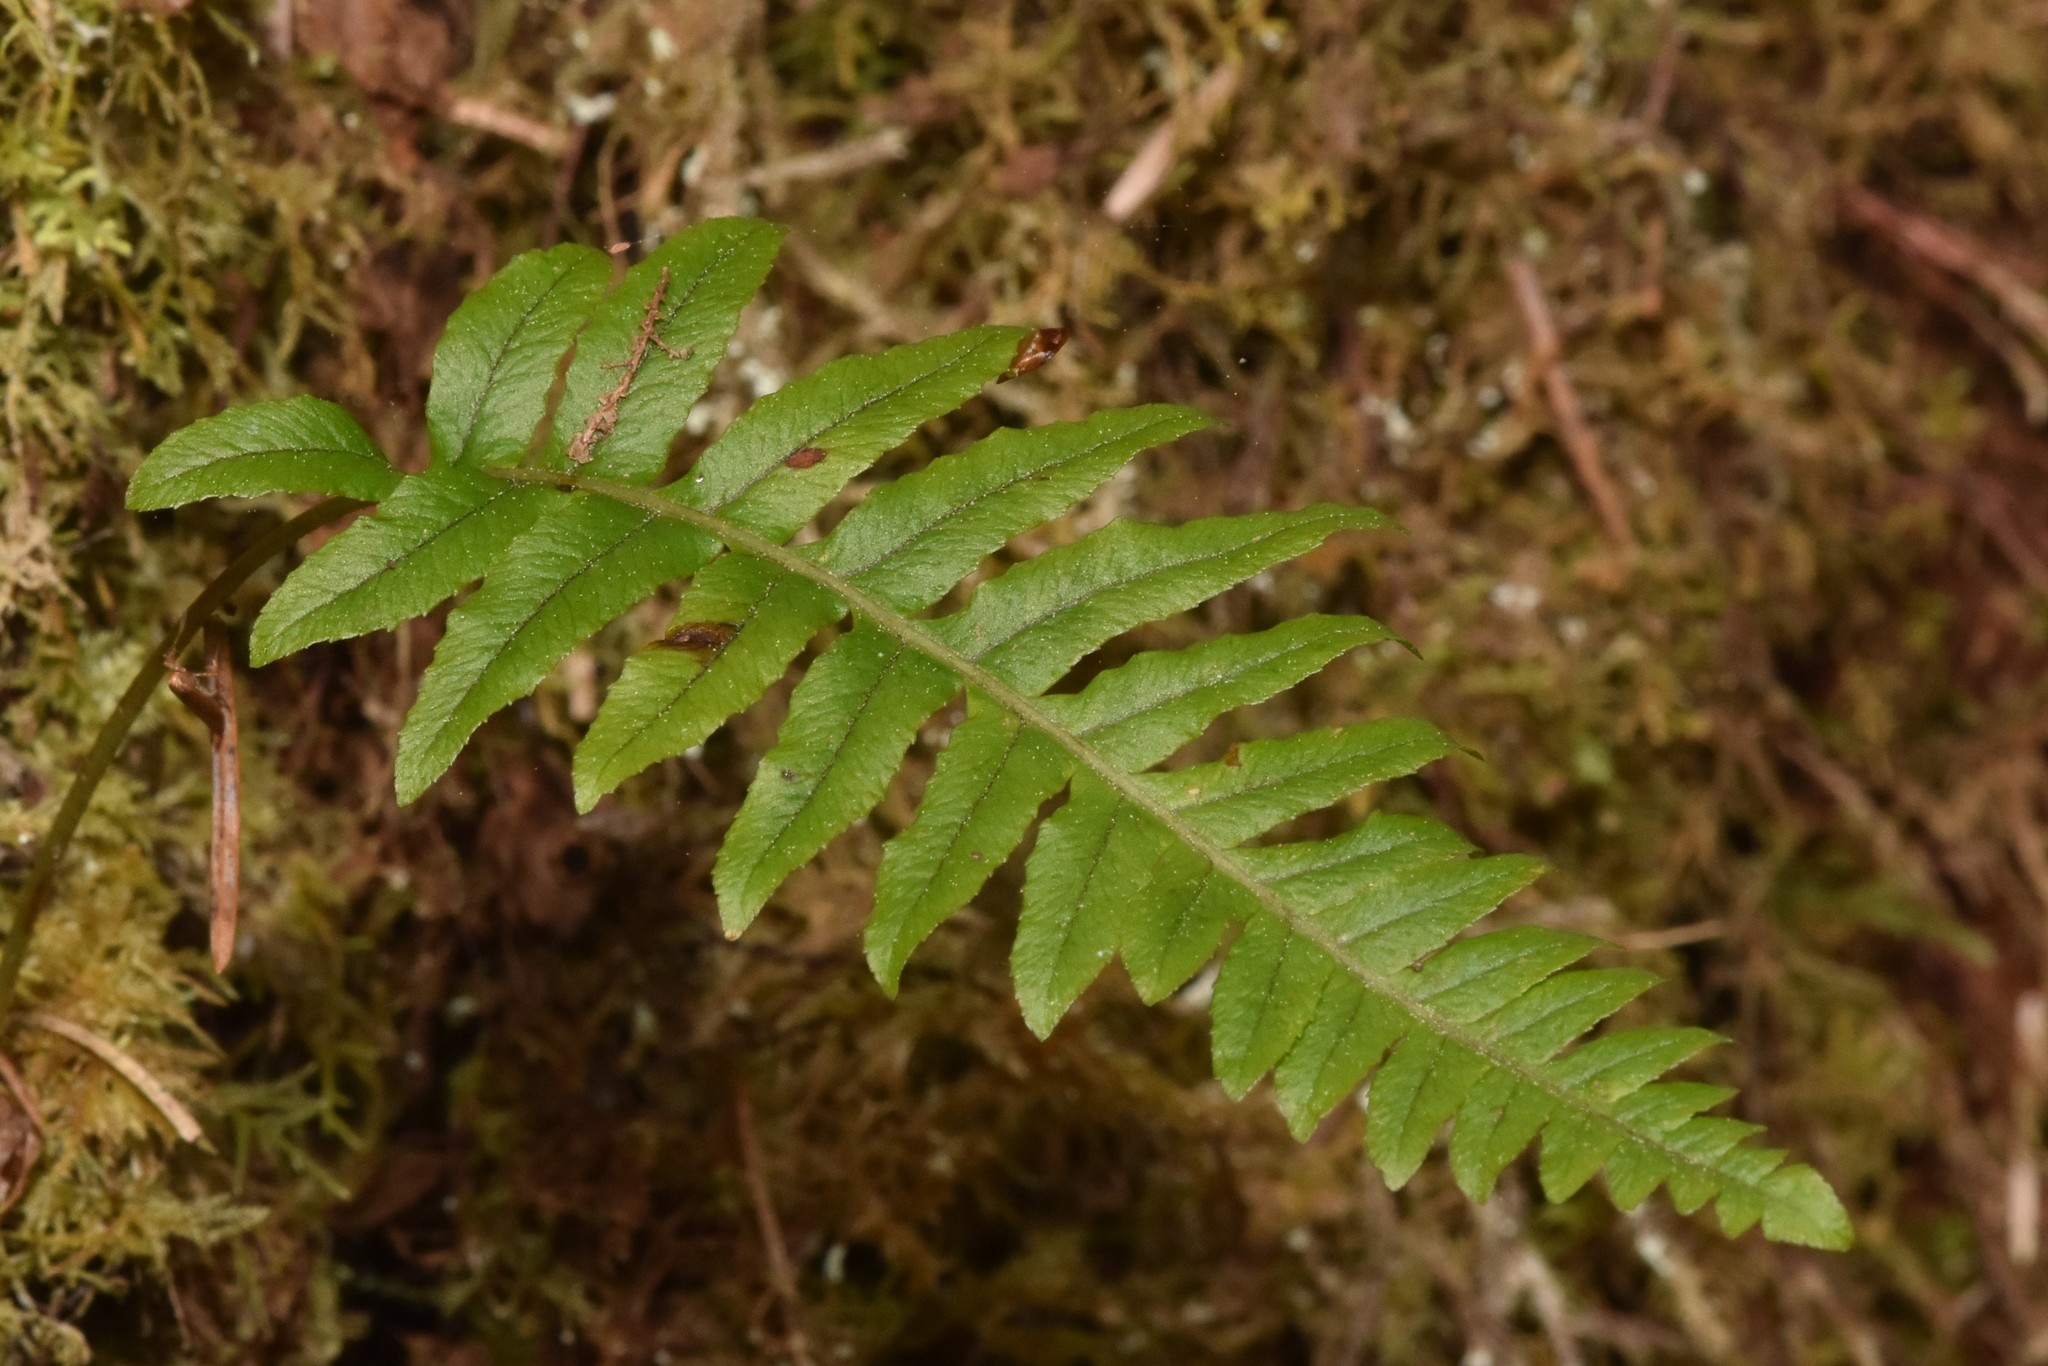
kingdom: Plantae
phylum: Tracheophyta
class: Polypodiopsida
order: Polypodiales
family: Polypodiaceae
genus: Polypodium
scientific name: Polypodium glycyrrhiza
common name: Licorice fern
